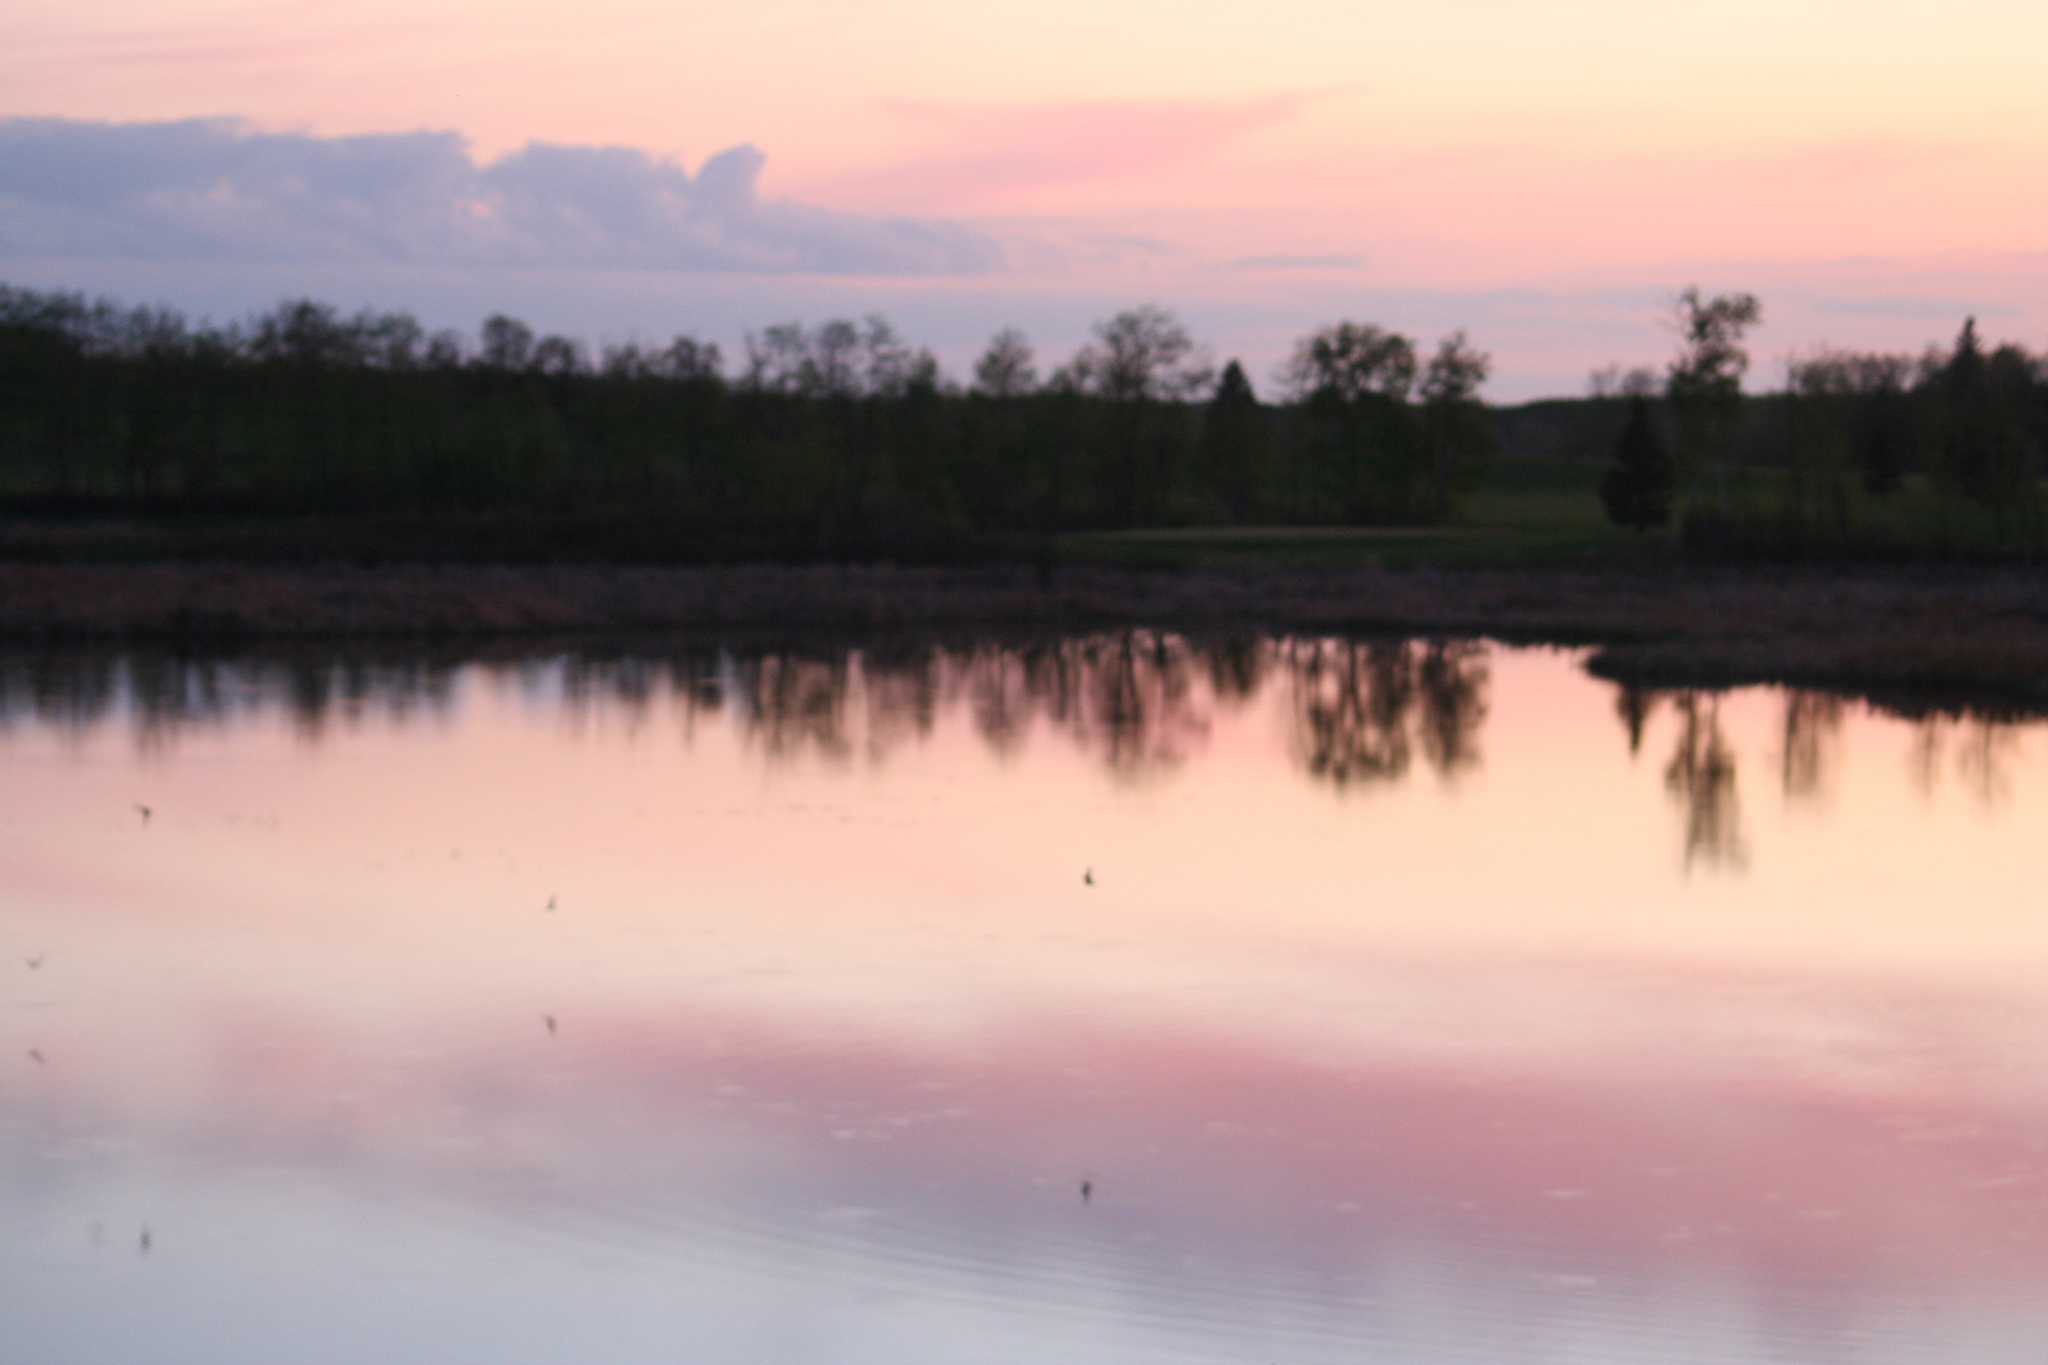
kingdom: Animalia
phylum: Chordata
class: Aves
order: Caprimulgiformes
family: Caprimulgidae
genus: Chordeiles
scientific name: Chordeiles minor
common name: Common nighthawk
